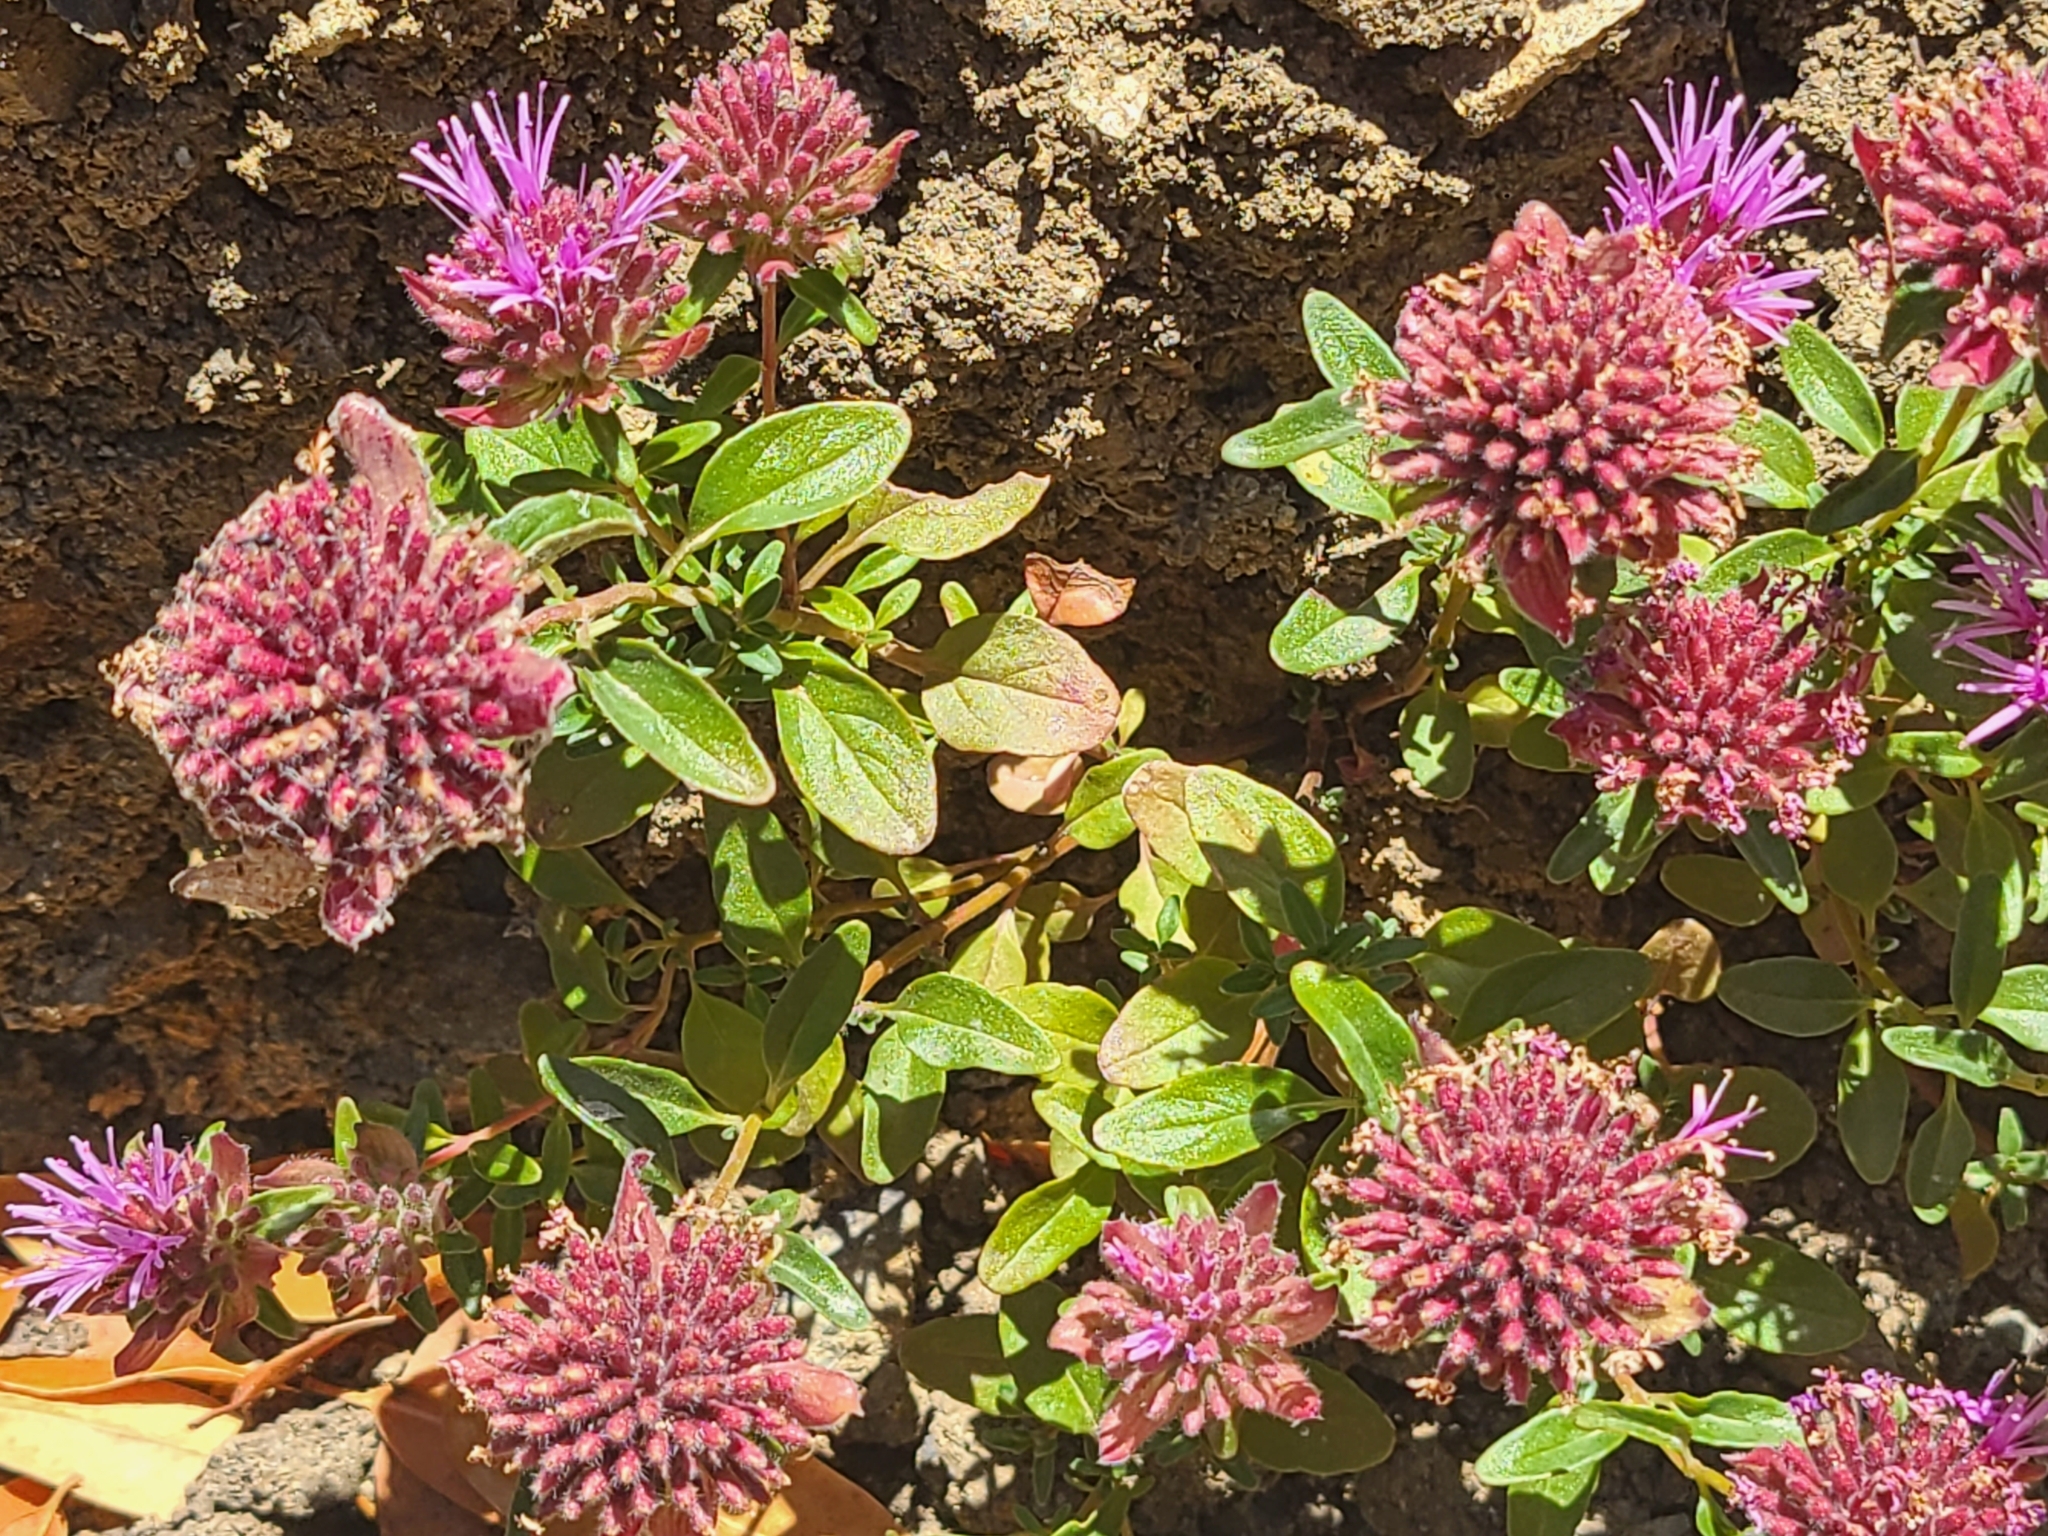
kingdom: Plantae
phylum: Tracheophyta
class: Magnoliopsida
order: Lamiales
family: Lamiaceae
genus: Monardella
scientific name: Monardella palmeri
